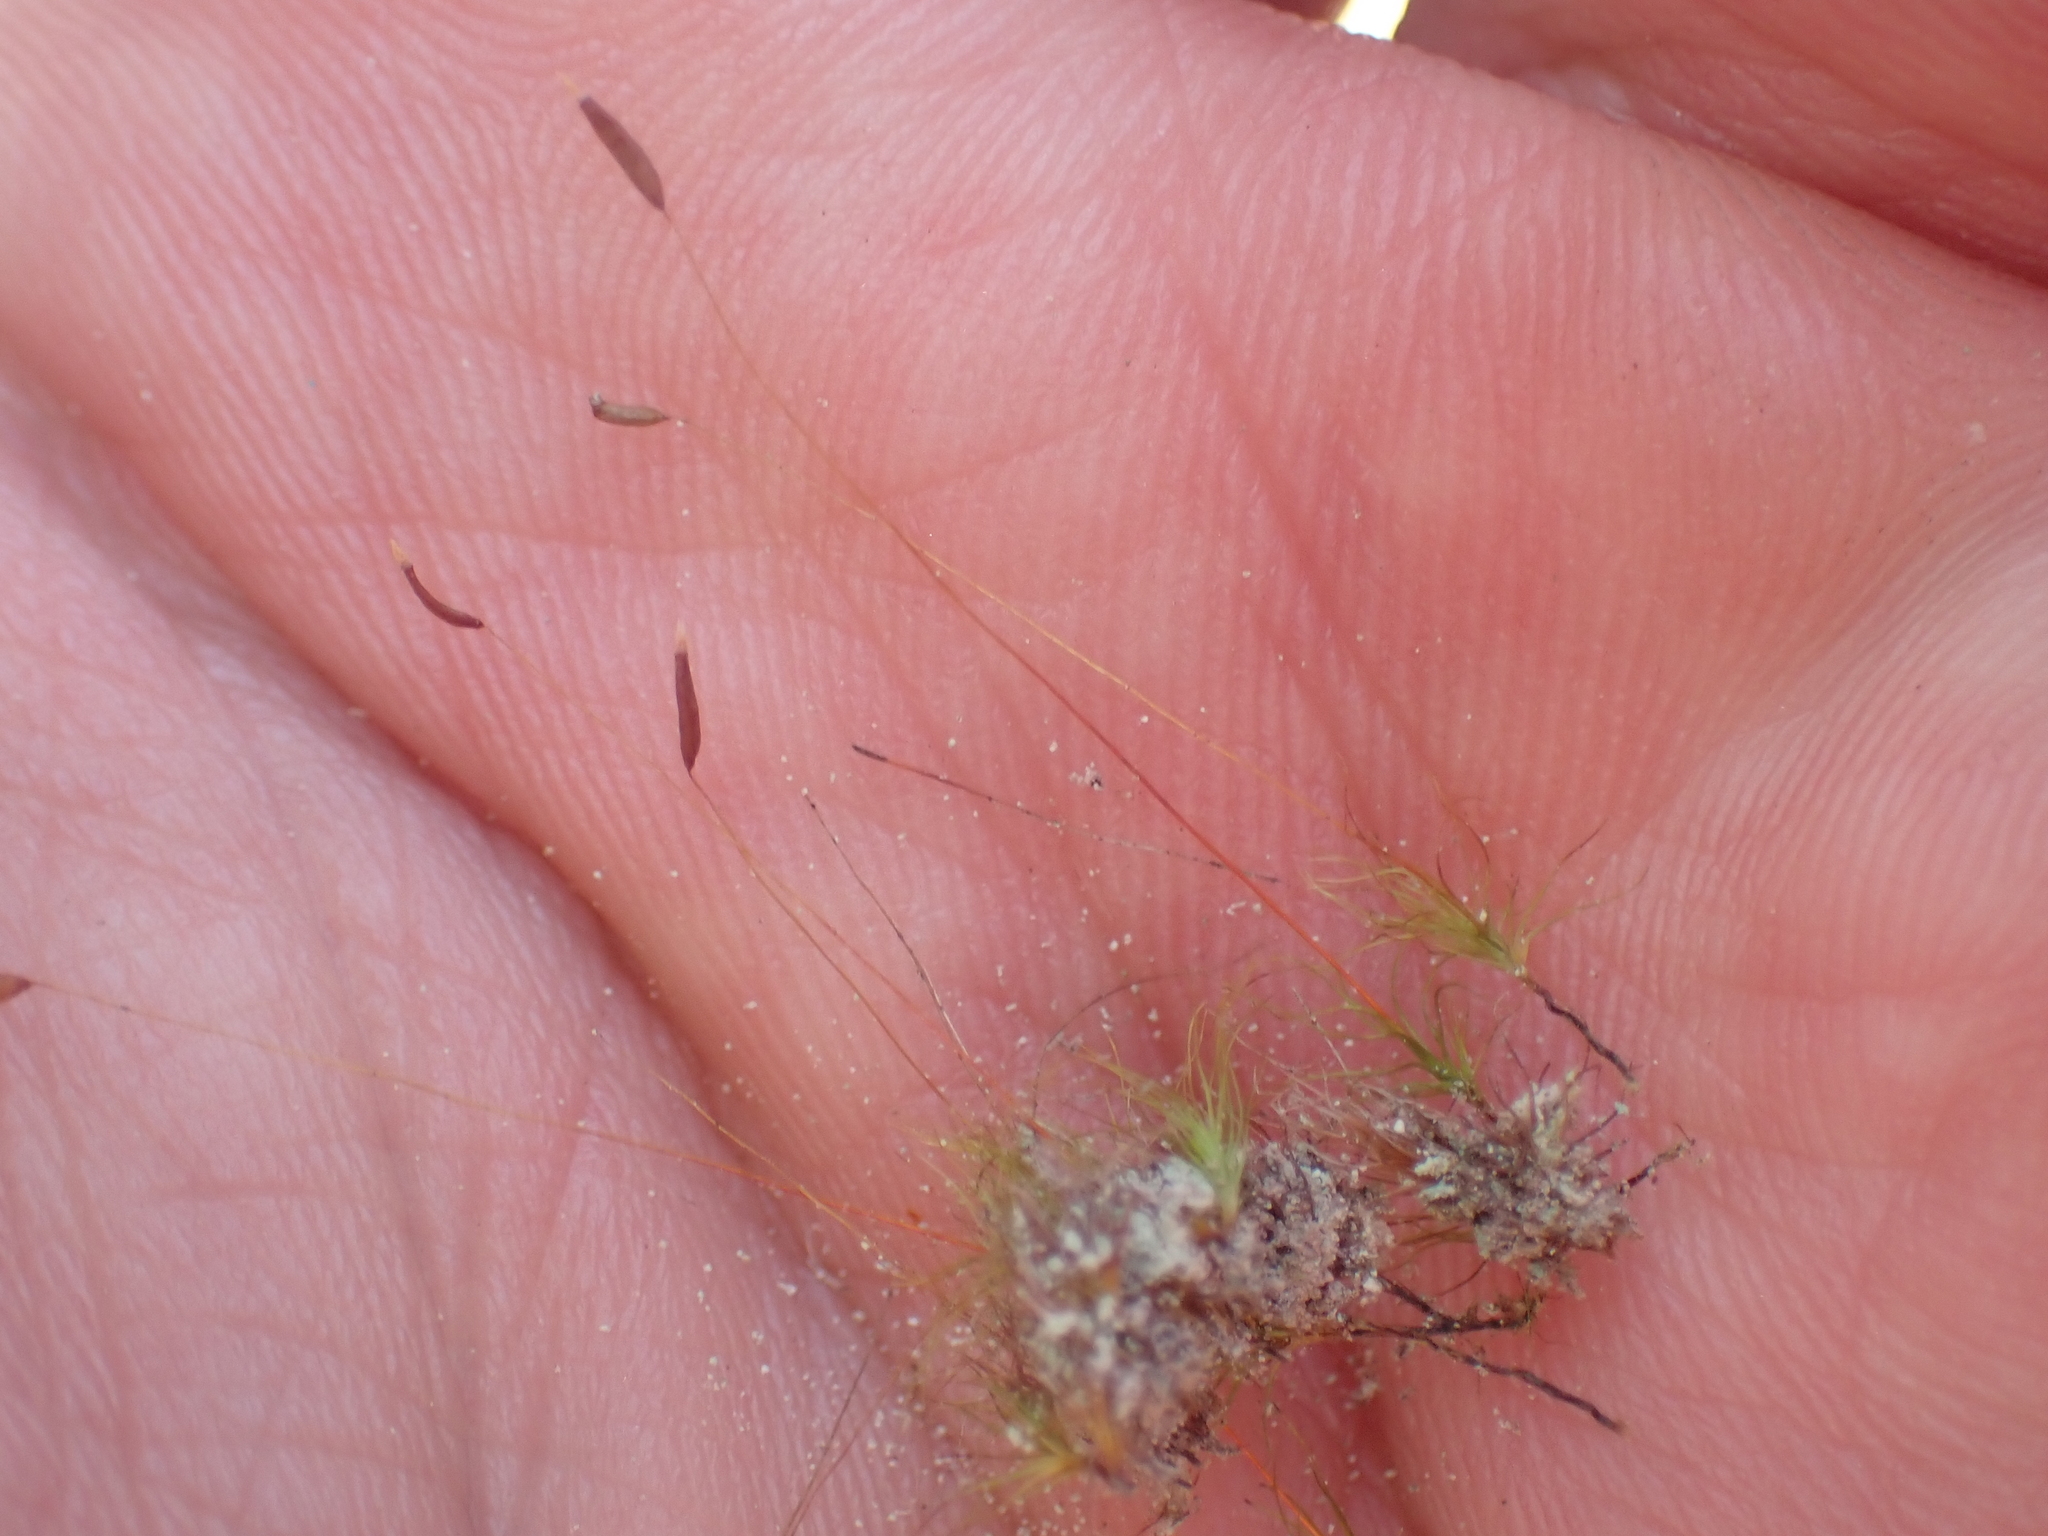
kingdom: Plantae
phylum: Bryophyta
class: Bryopsida
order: Dicranales
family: Ditrichaceae
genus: Ditrichum
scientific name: Ditrichum difficile
